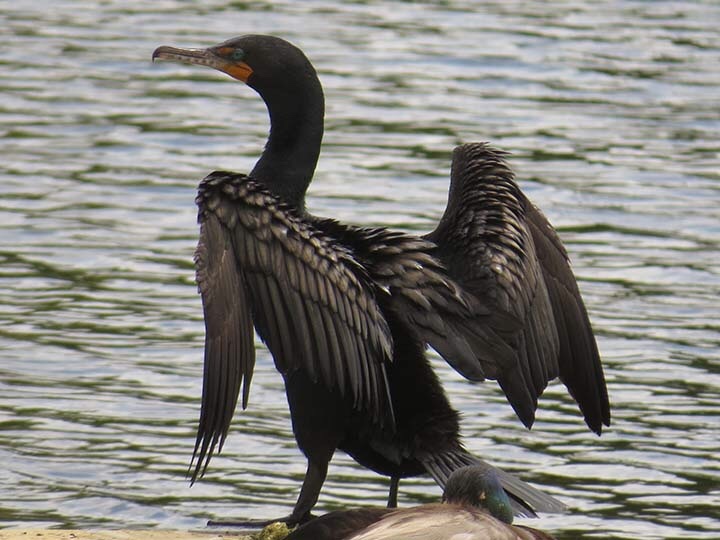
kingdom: Animalia
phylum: Chordata
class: Aves
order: Suliformes
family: Phalacrocoracidae
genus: Phalacrocorax
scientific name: Phalacrocorax auritus
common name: Double-crested cormorant
